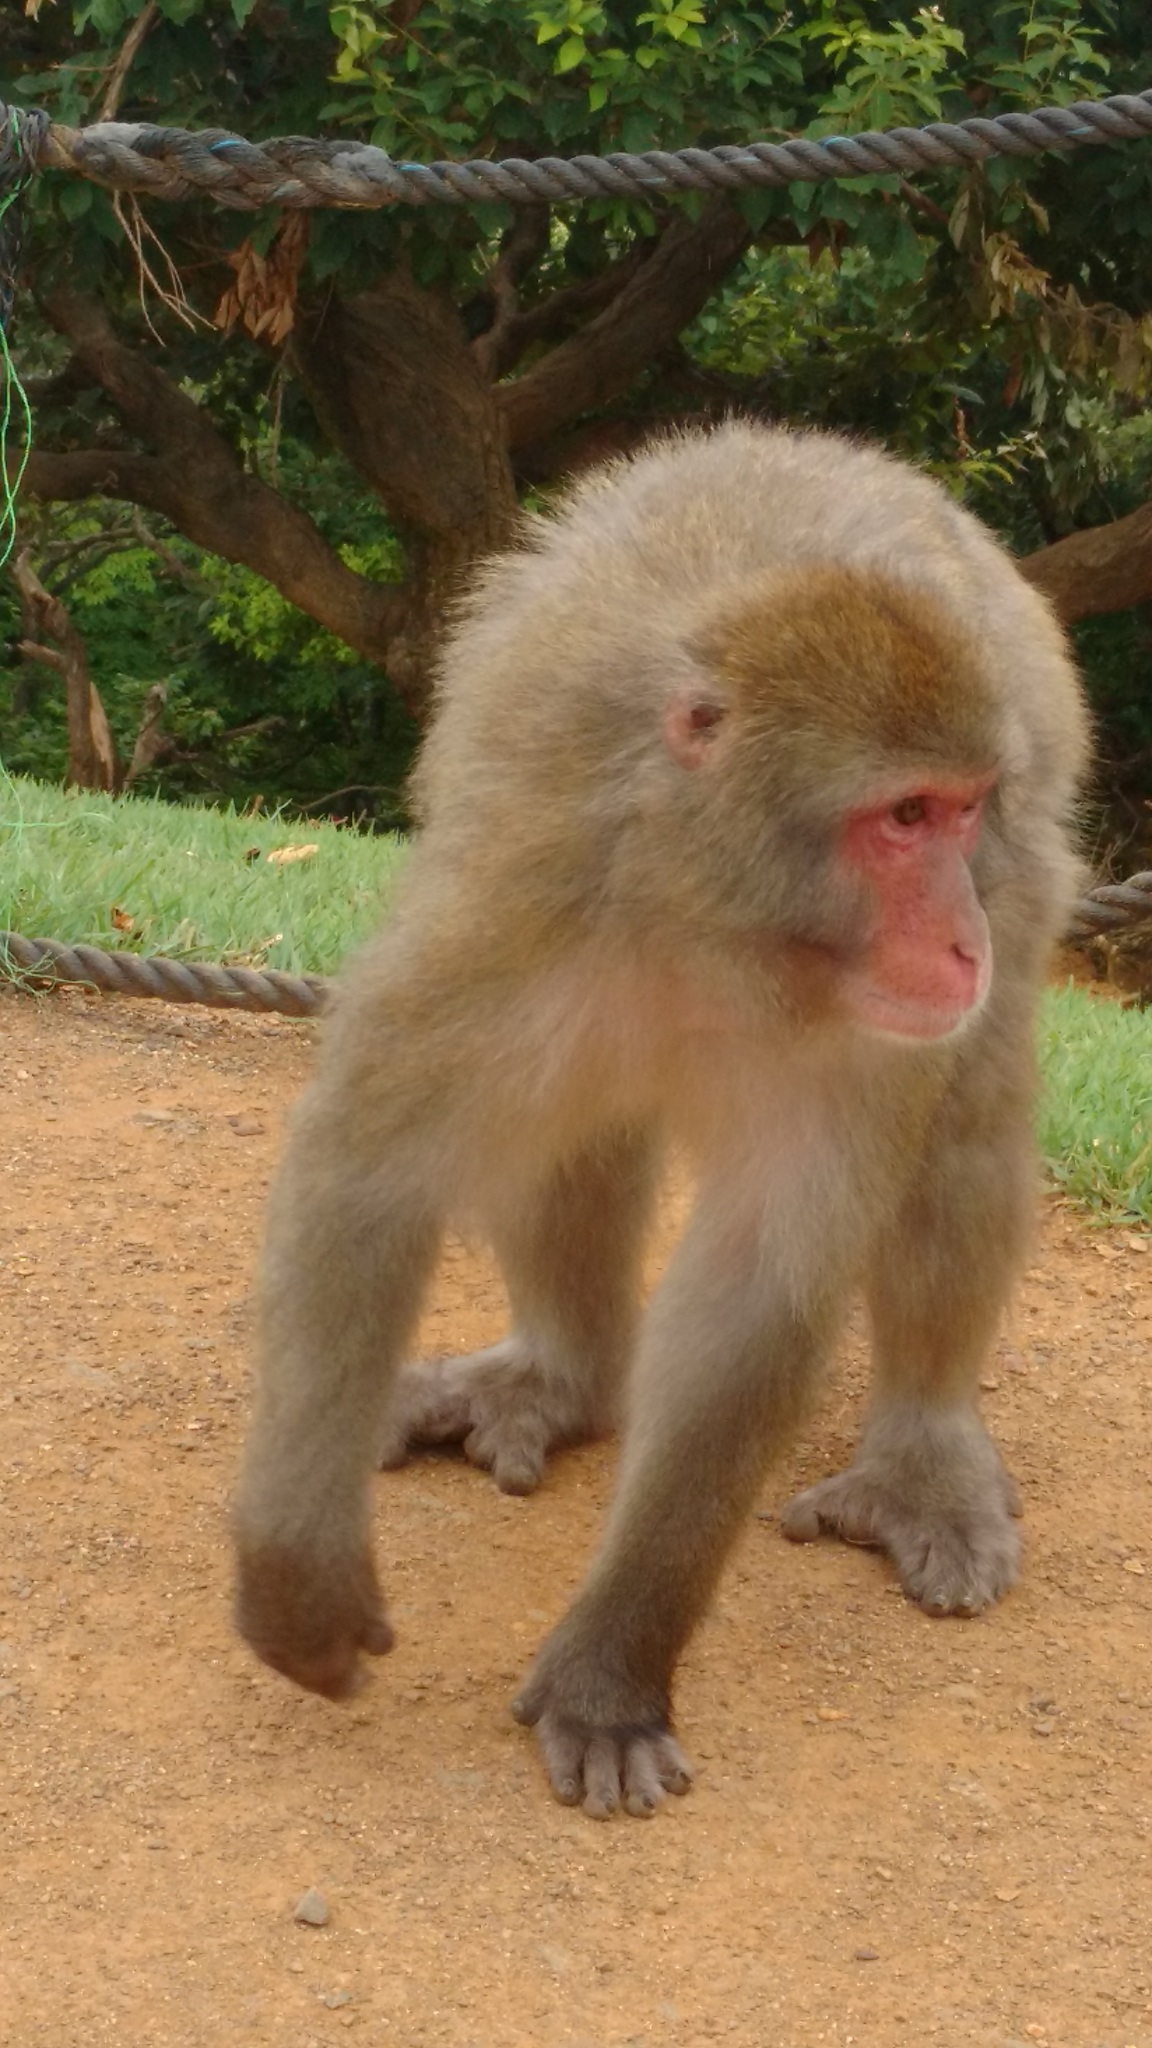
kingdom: Animalia
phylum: Chordata
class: Mammalia
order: Primates
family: Cercopithecidae
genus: Macaca
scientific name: Macaca fuscata
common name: Japanese macaque
